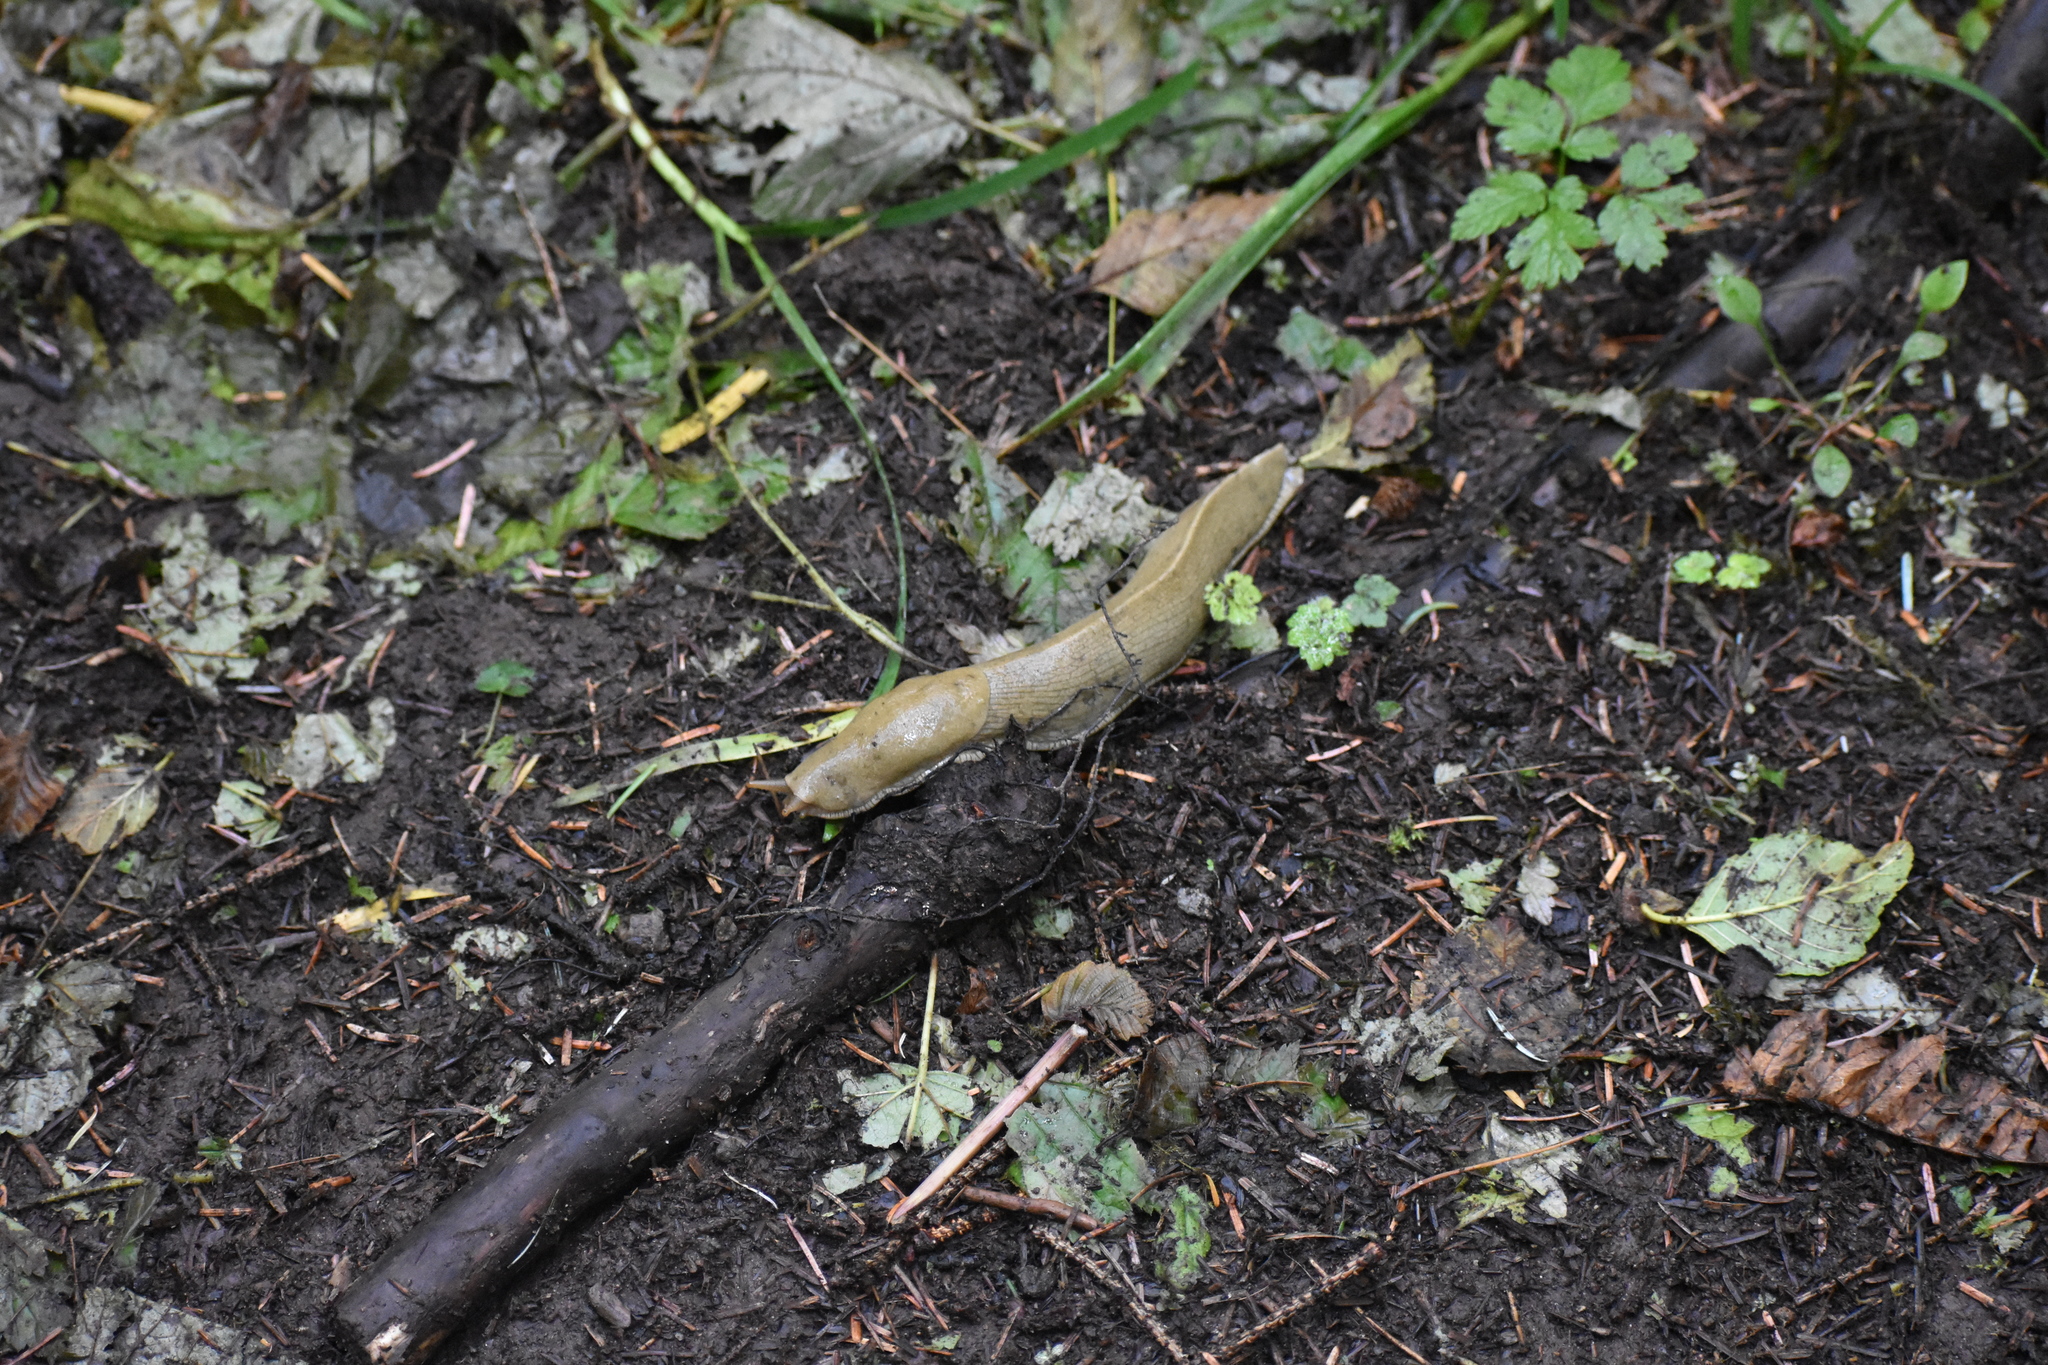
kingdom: Animalia
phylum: Mollusca
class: Gastropoda
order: Stylommatophora
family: Ariolimacidae
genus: Ariolimax
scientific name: Ariolimax columbianus
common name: Pacific banana slug
